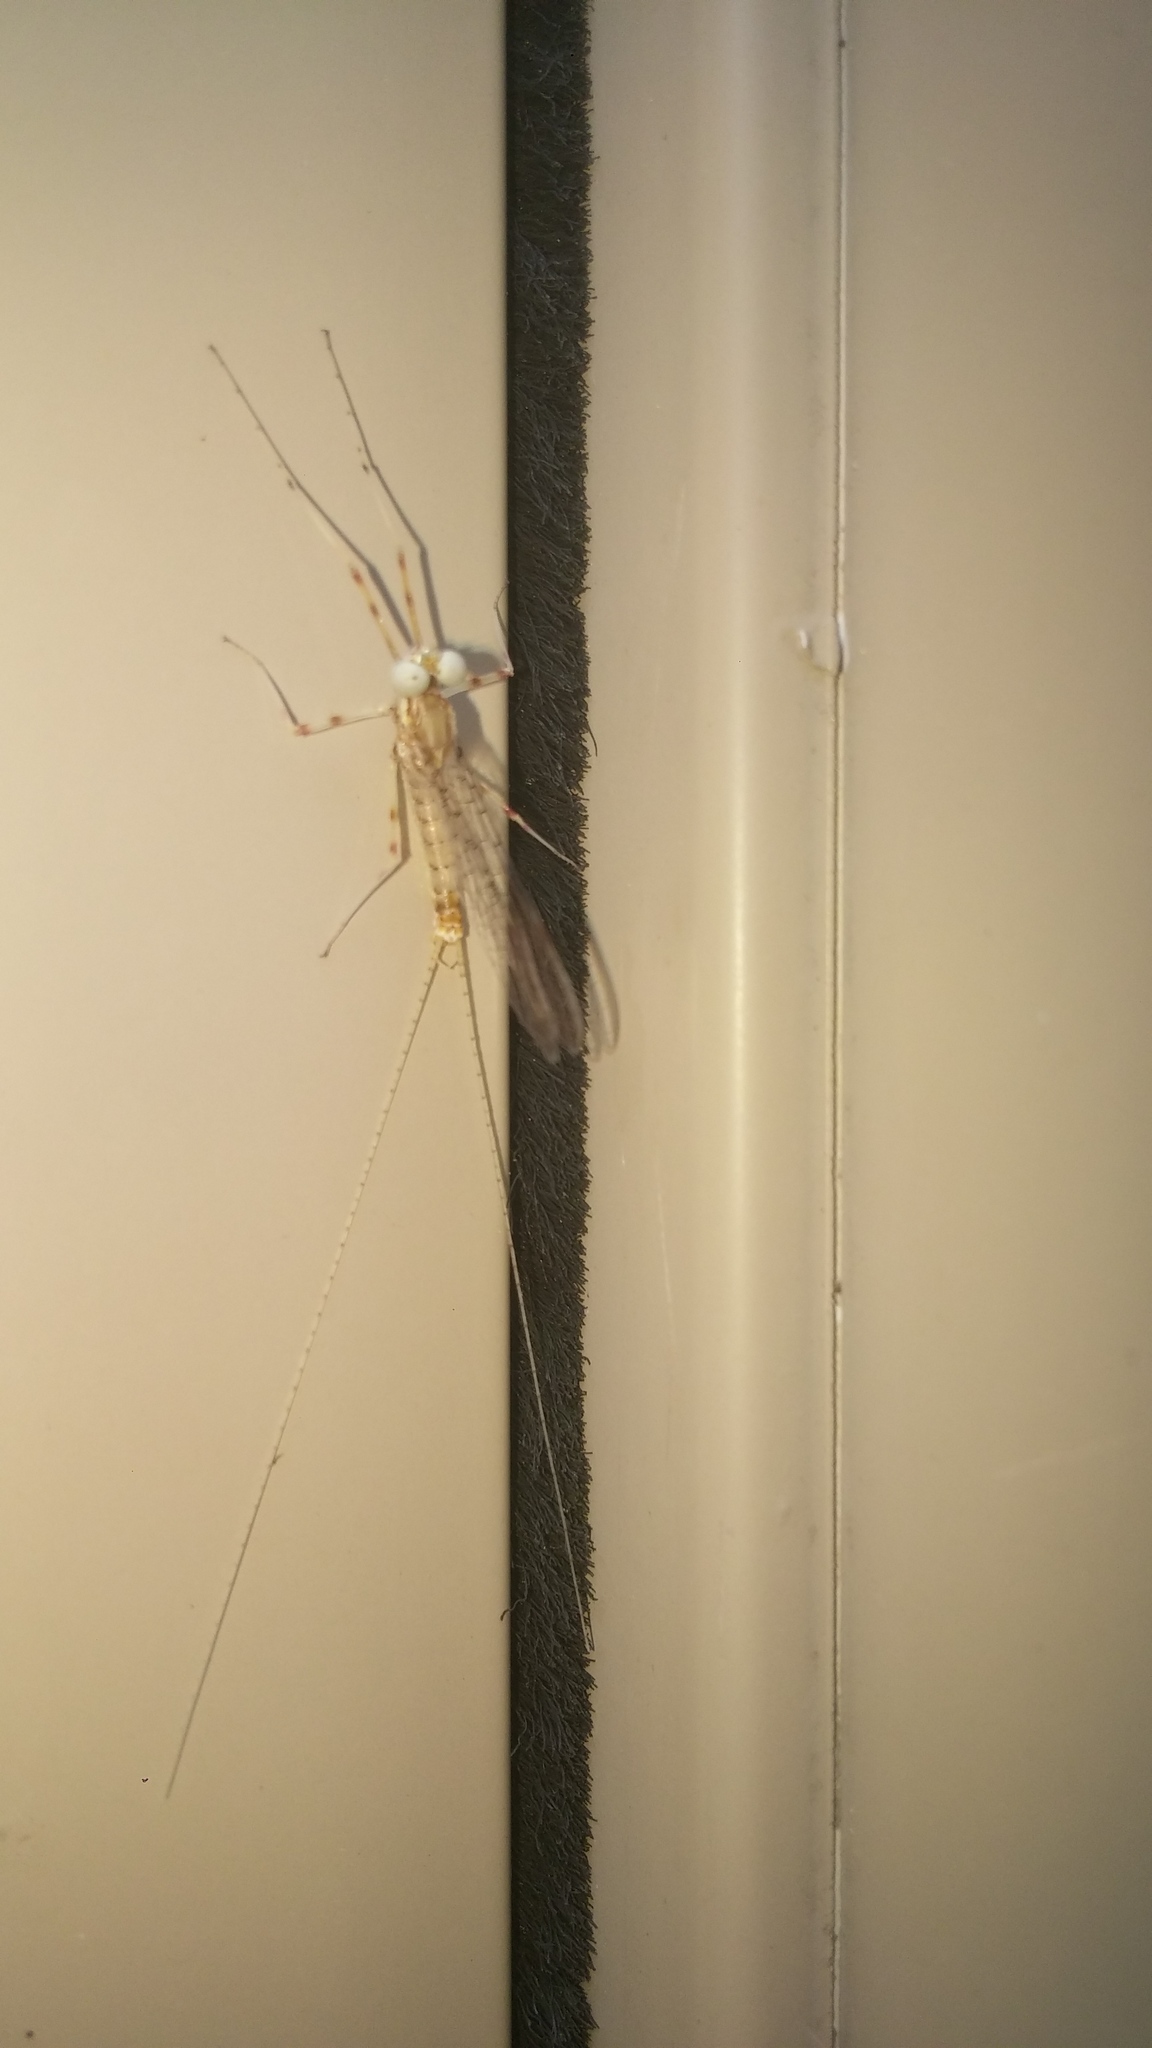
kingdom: Animalia
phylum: Arthropoda
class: Insecta
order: Ephemeroptera
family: Heptageniidae
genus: Stenonema
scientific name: Stenonema femoratum
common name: Dark cahill
